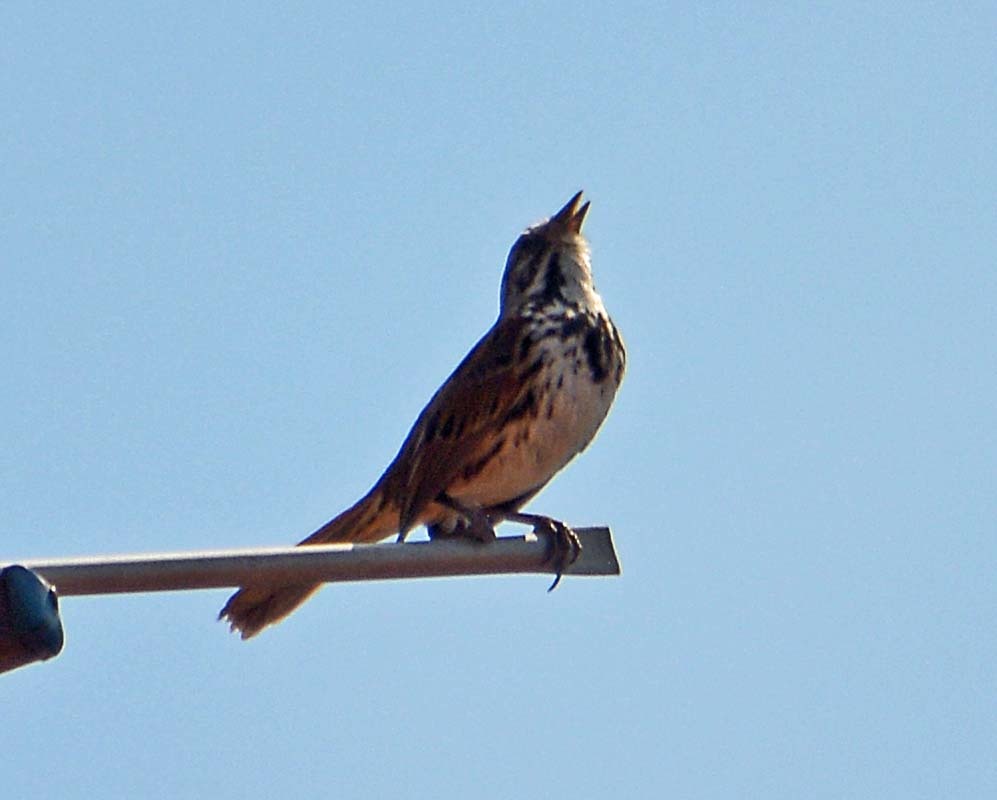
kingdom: Animalia
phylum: Chordata
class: Aves
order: Passeriformes
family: Passerellidae
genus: Melospiza
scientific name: Melospiza melodia
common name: Song sparrow
